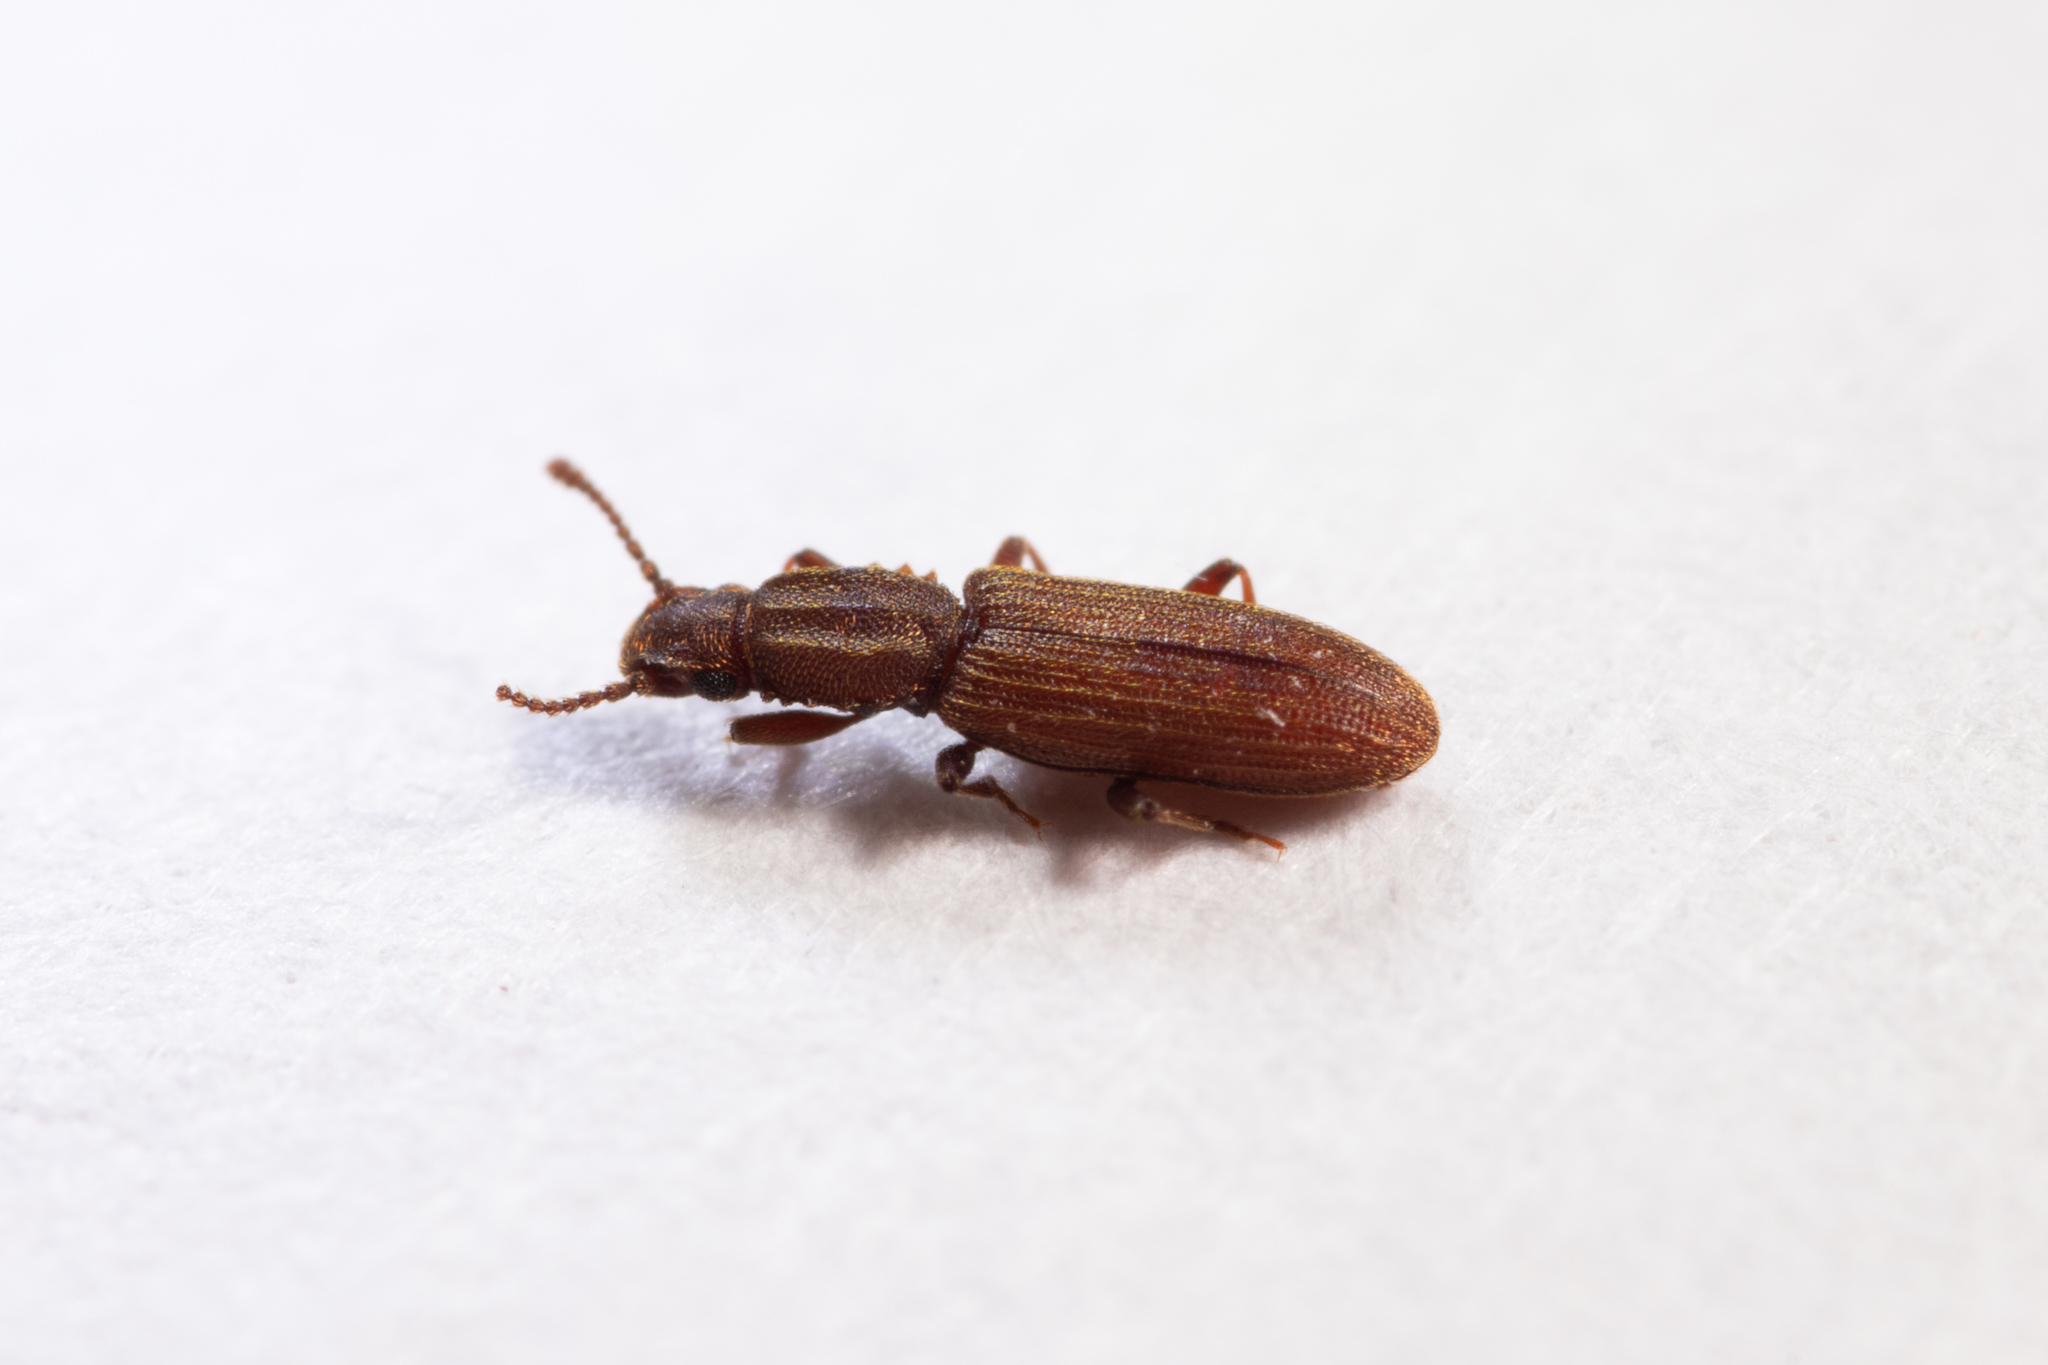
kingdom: Animalia
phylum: Arthropoda
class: Insecta
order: Coleoptera
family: Silvanidae
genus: Oryzaephilus
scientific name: Oryzaephilus surinamensis
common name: Sawtoothed grain beetle
